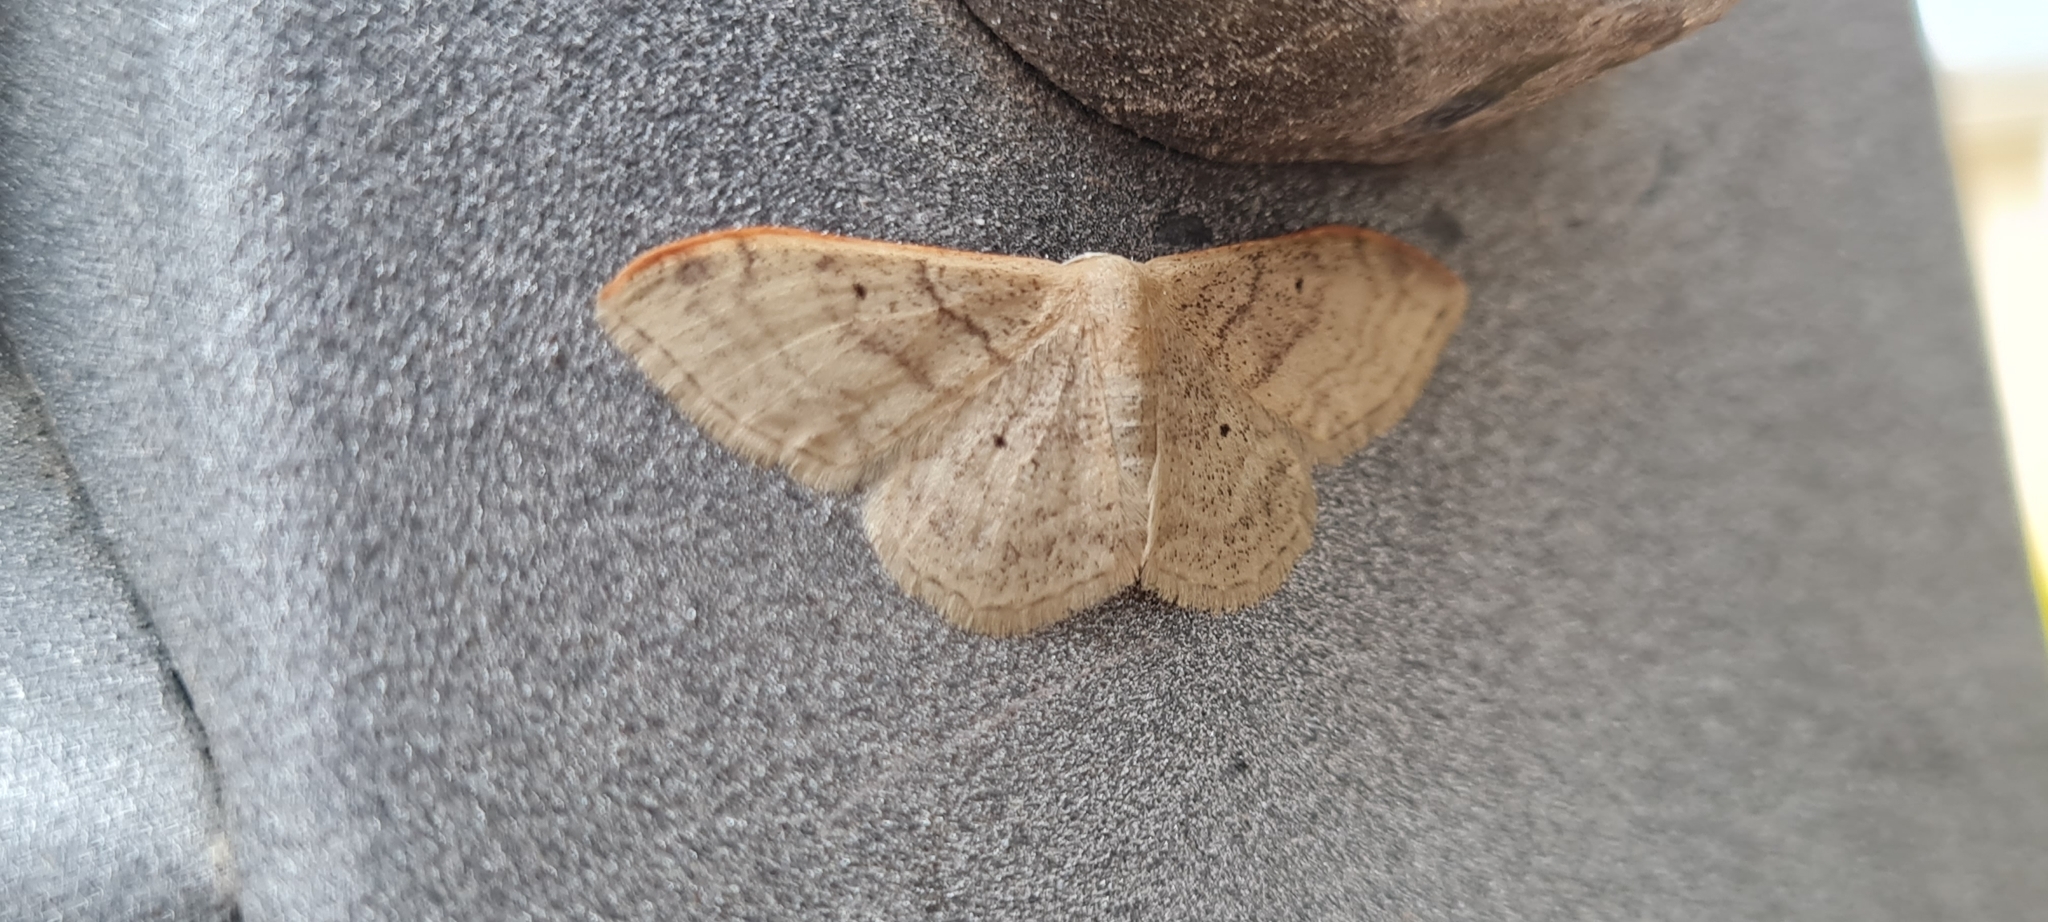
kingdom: Animalia
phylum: Arthropoda
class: Insecta
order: Lepidoptera
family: Geometridae
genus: Idaea
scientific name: Idaea degeneraria
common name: Portland ribbon wave
